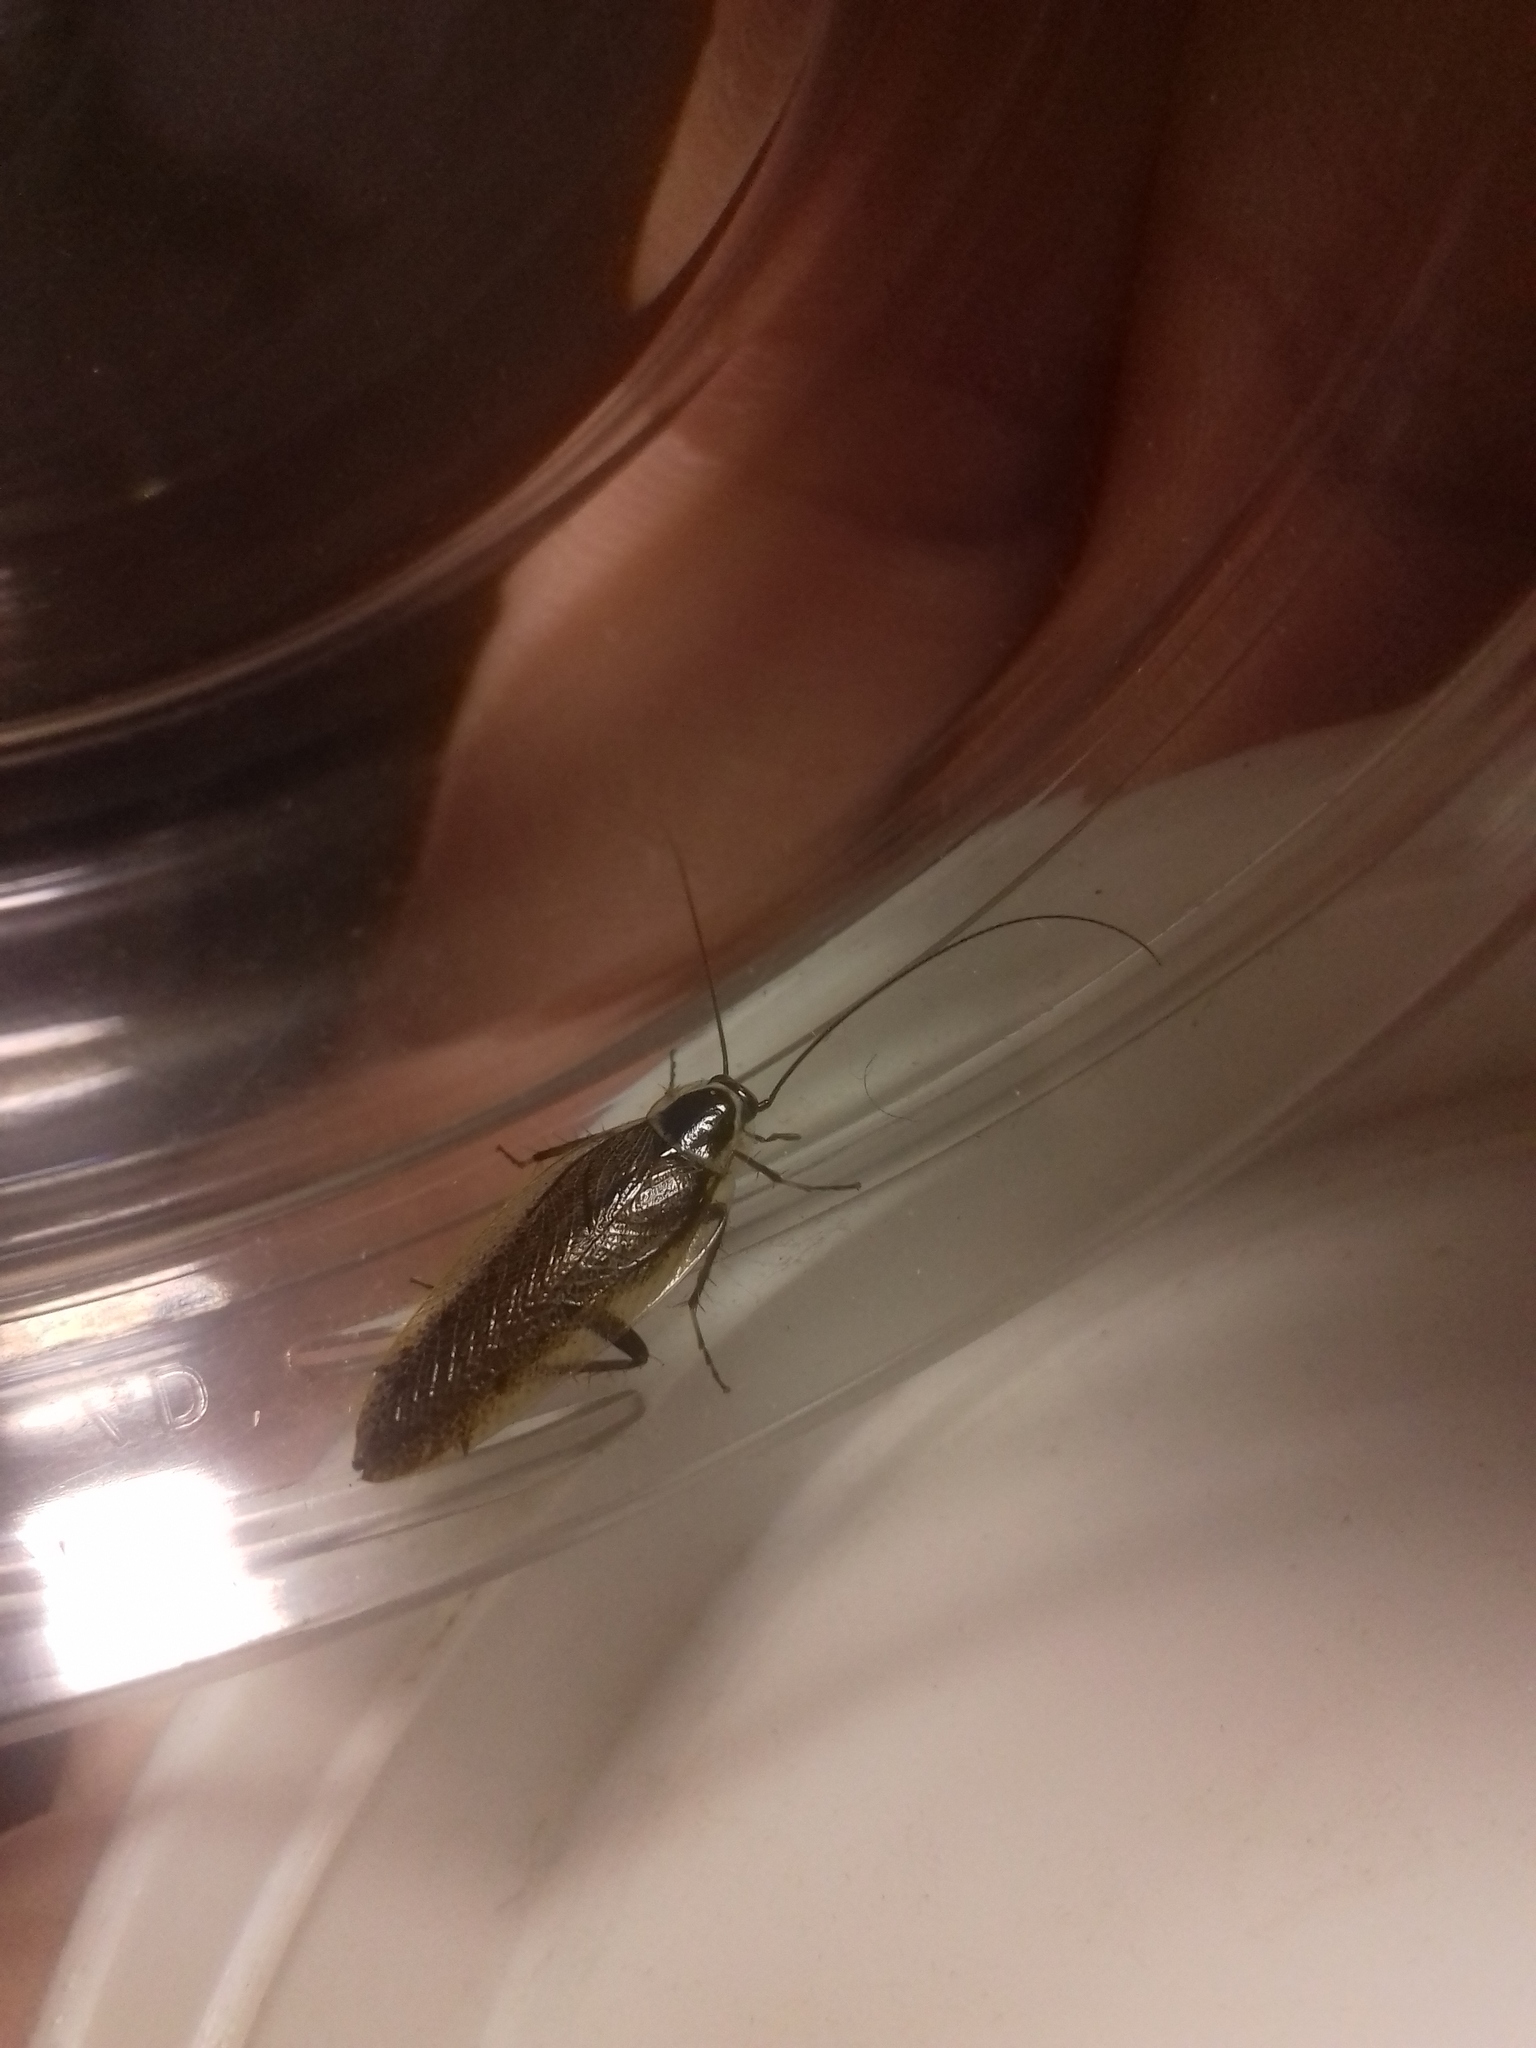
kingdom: Animalia
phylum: Arthropoda
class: Insecta
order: Blattodea
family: Ectobiidae
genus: Ectobius
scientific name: Ectobius lapponicus
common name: Dusky cockroach
